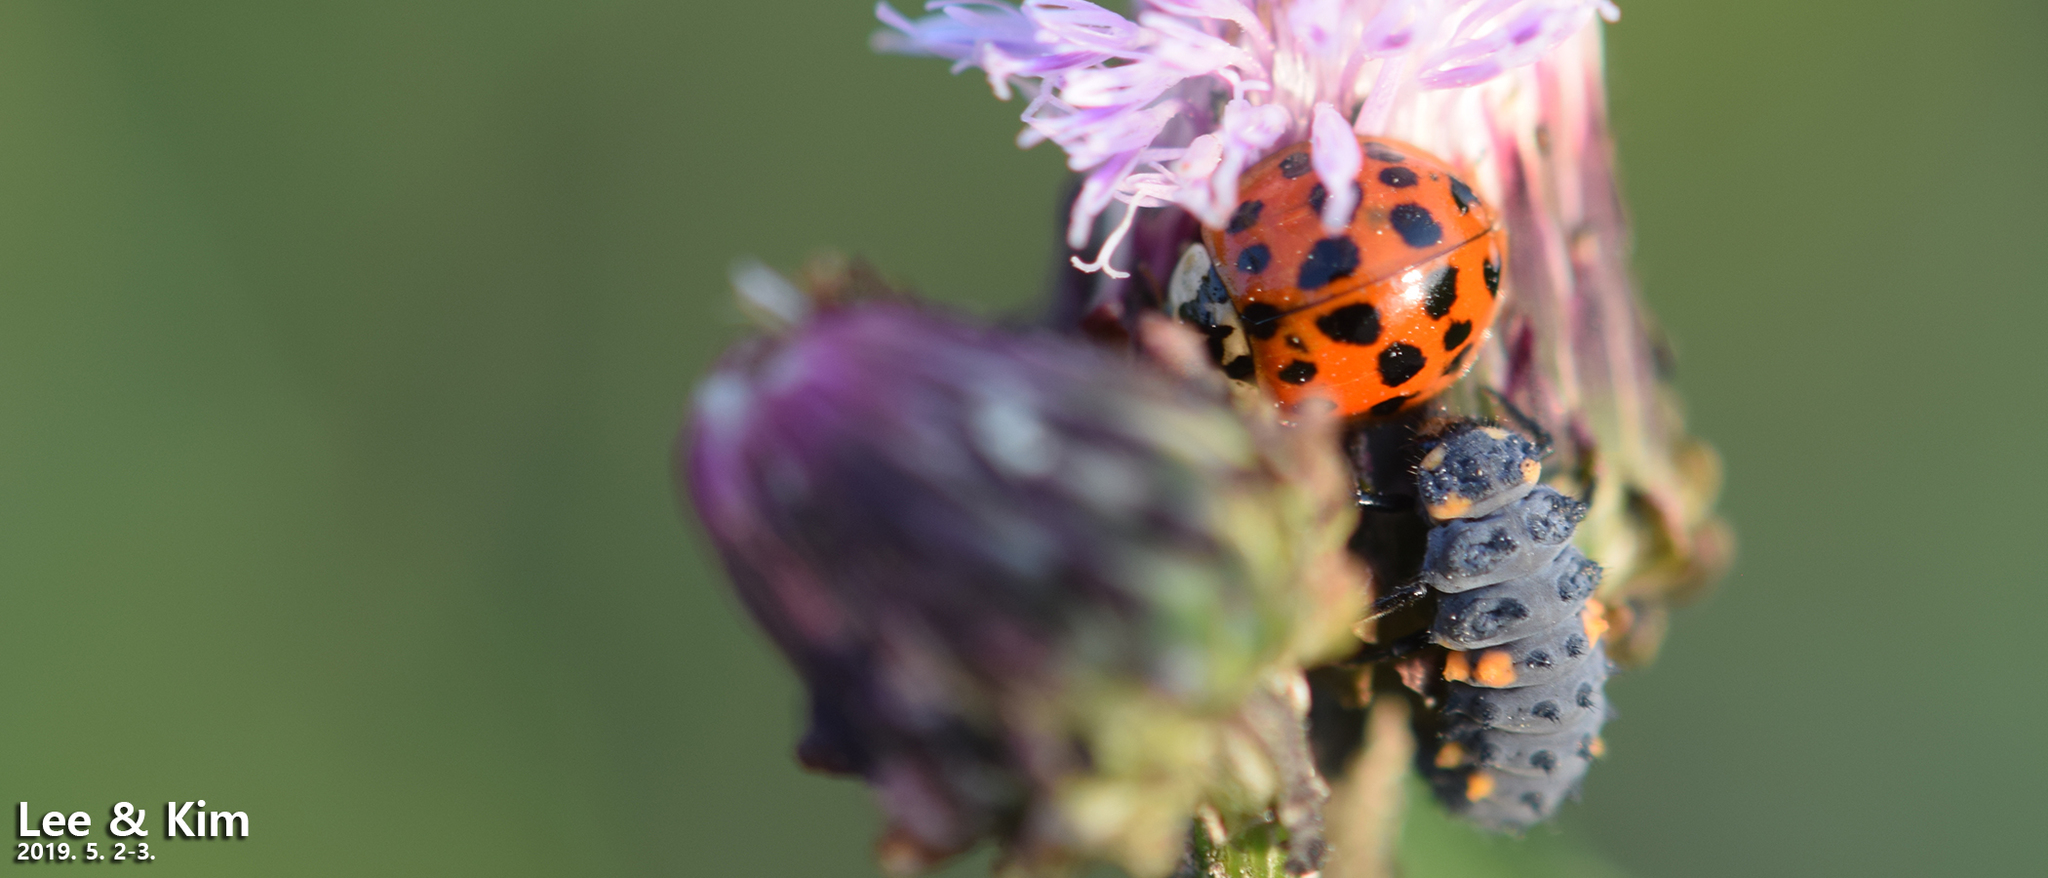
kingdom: Animalia
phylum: Arthropoda
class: Insecta
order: Coleoptera
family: Coccinellidae
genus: Harmonia
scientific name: Harmonia axyridis
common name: Harlequin ladybird
